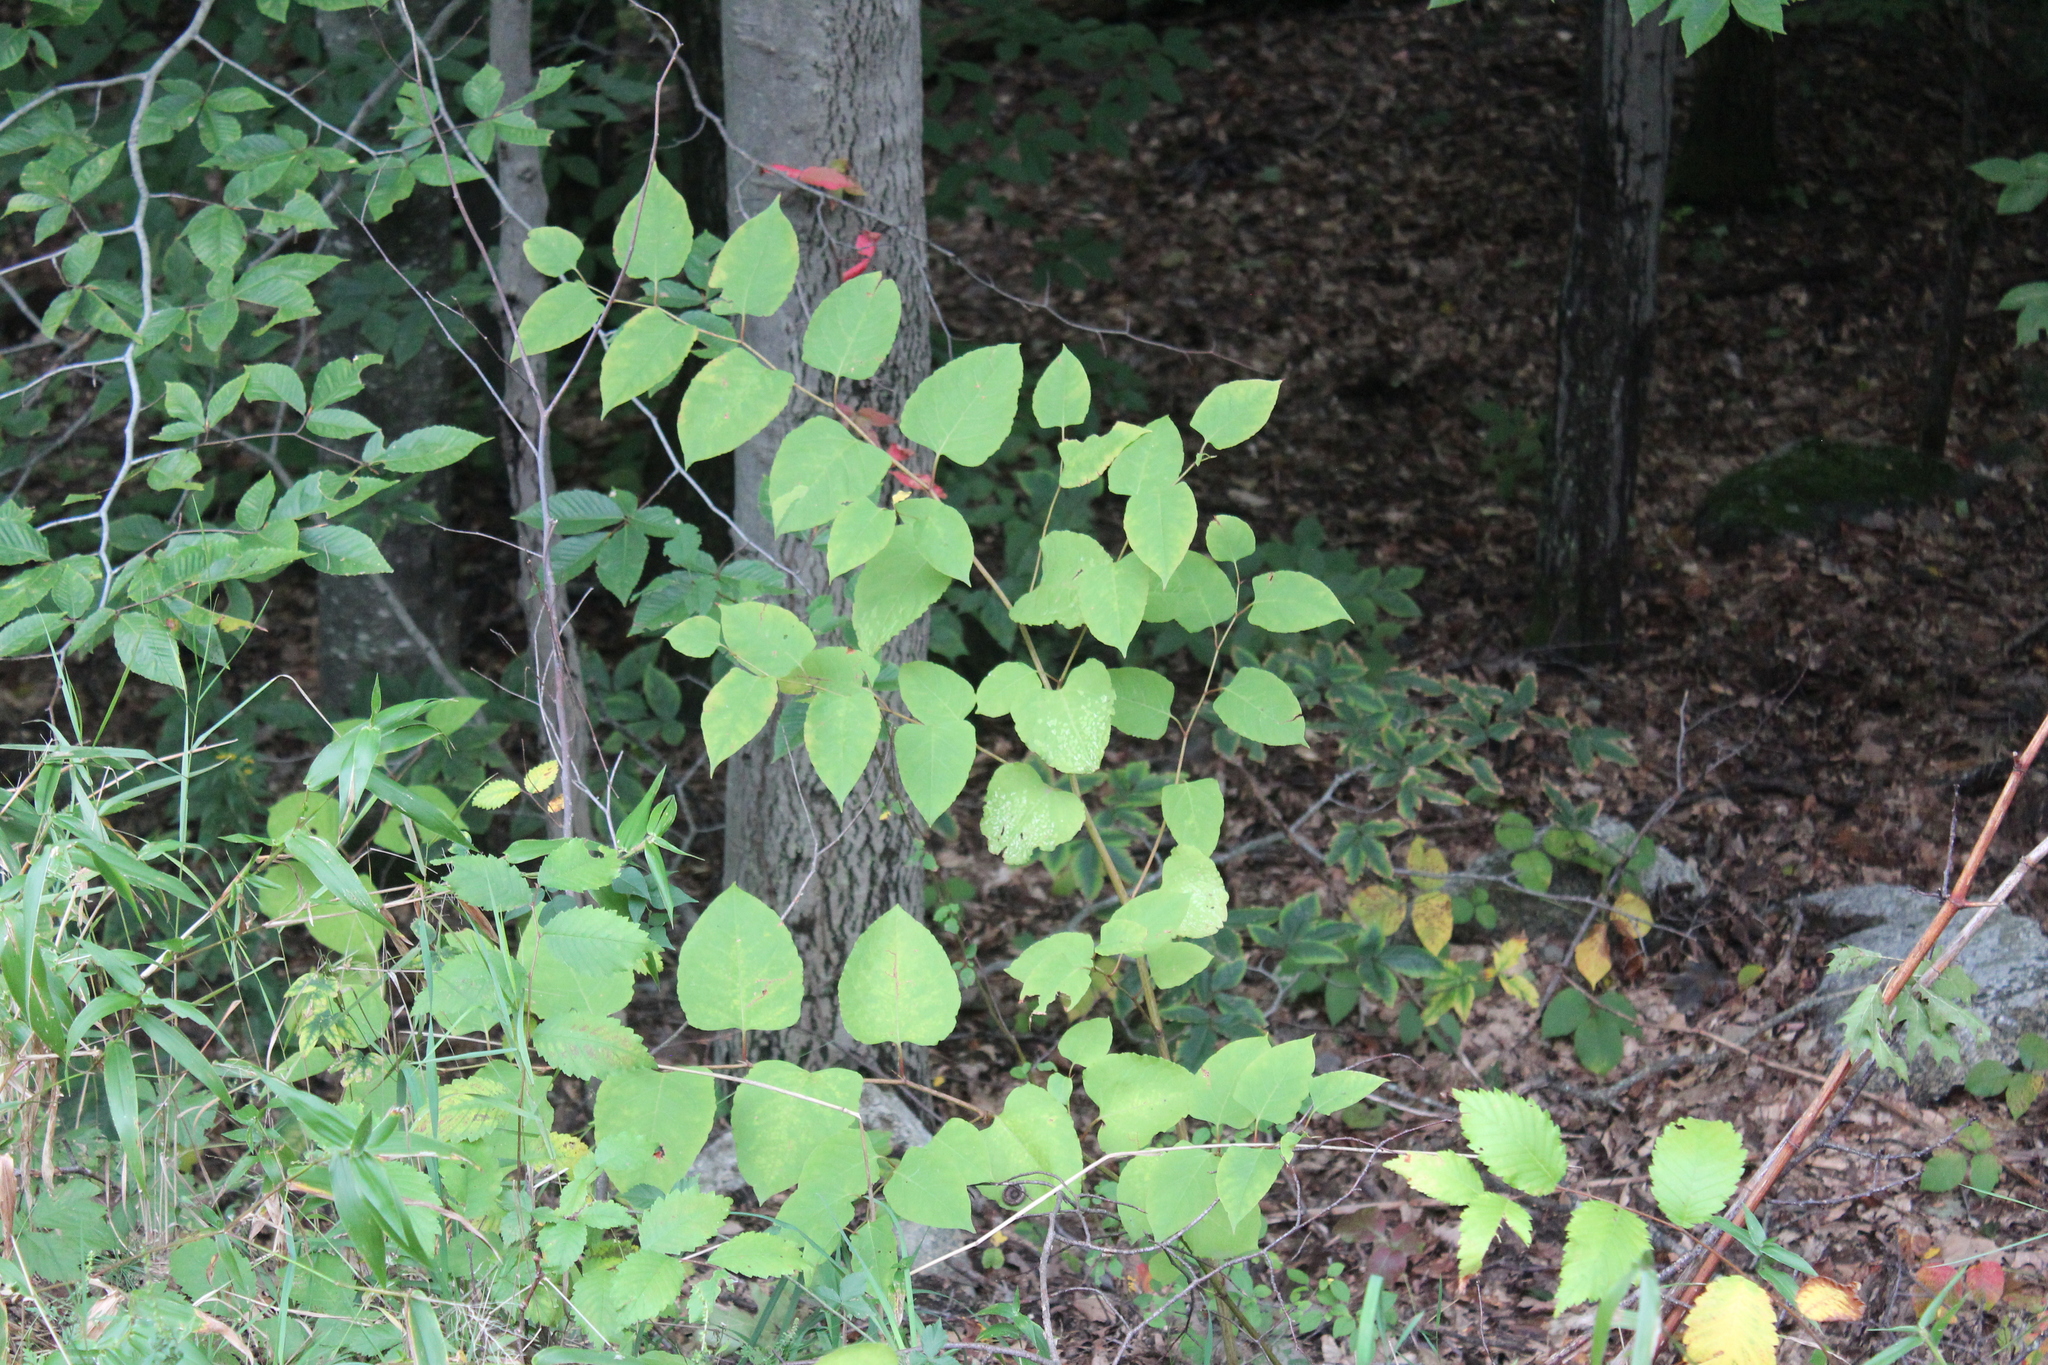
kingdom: Plantae
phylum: Tracheophyta
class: Magnoliopsida
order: Caryophyllales
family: Polygonaceae
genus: Reynoutria
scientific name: Reynoutria japonica
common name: Japanese knotweed
